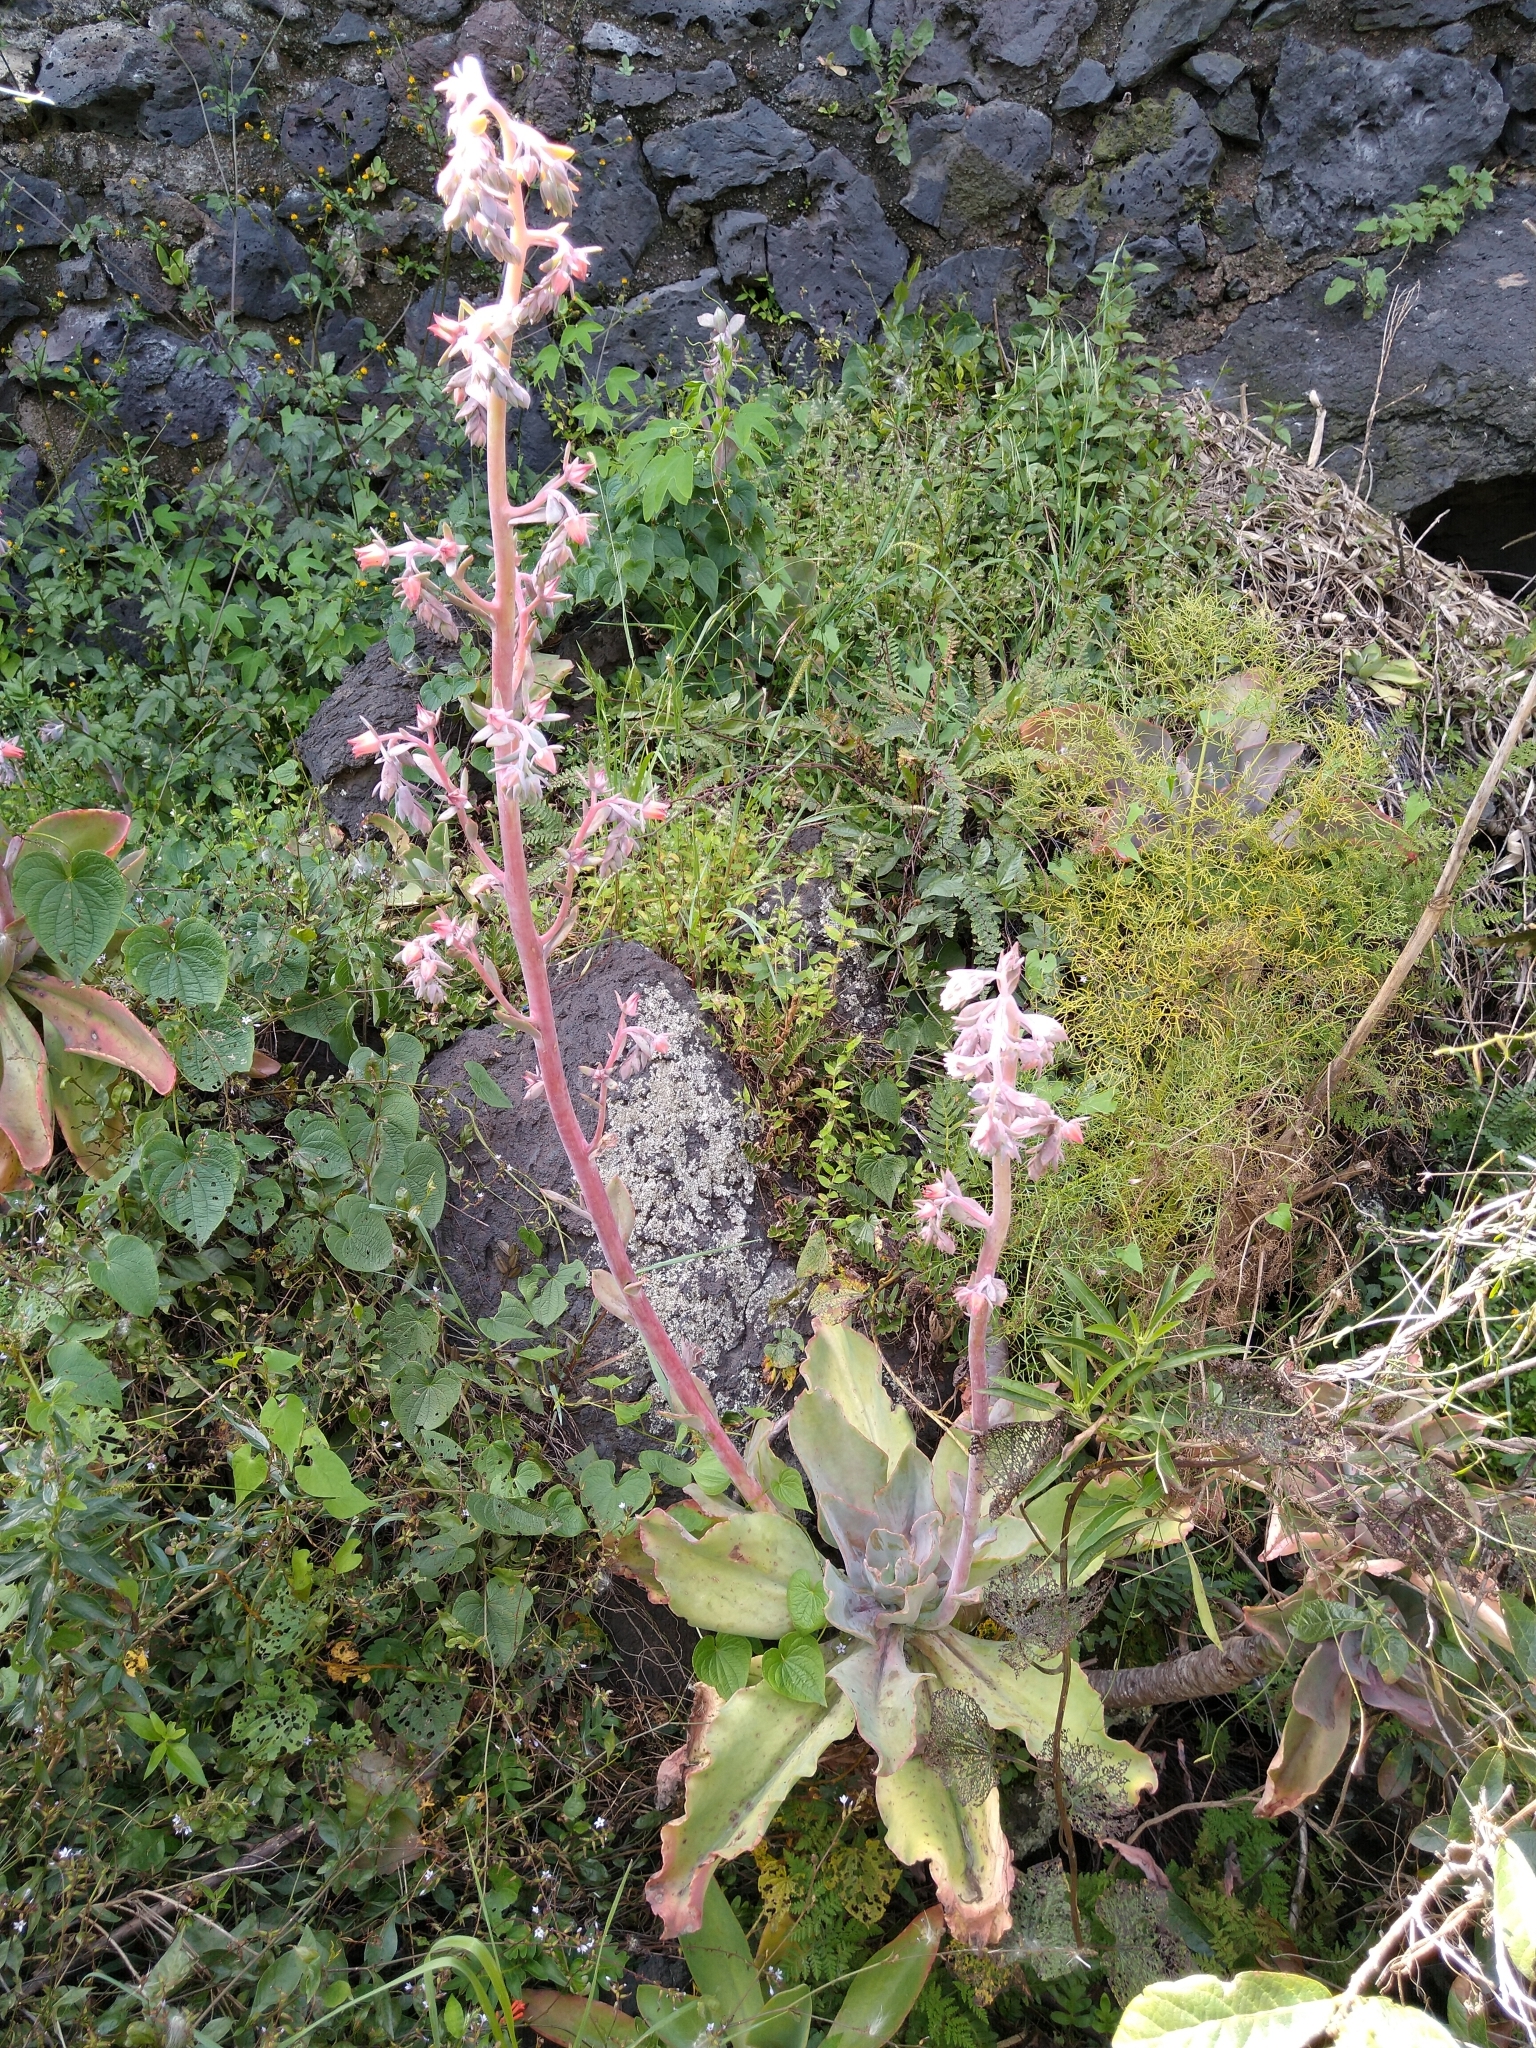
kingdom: Plantae
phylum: Tracheophyta
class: Magnoliopsida
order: Saxifragales
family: Crassulaceae
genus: Echeveria
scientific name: Echeveria gibbiflora
